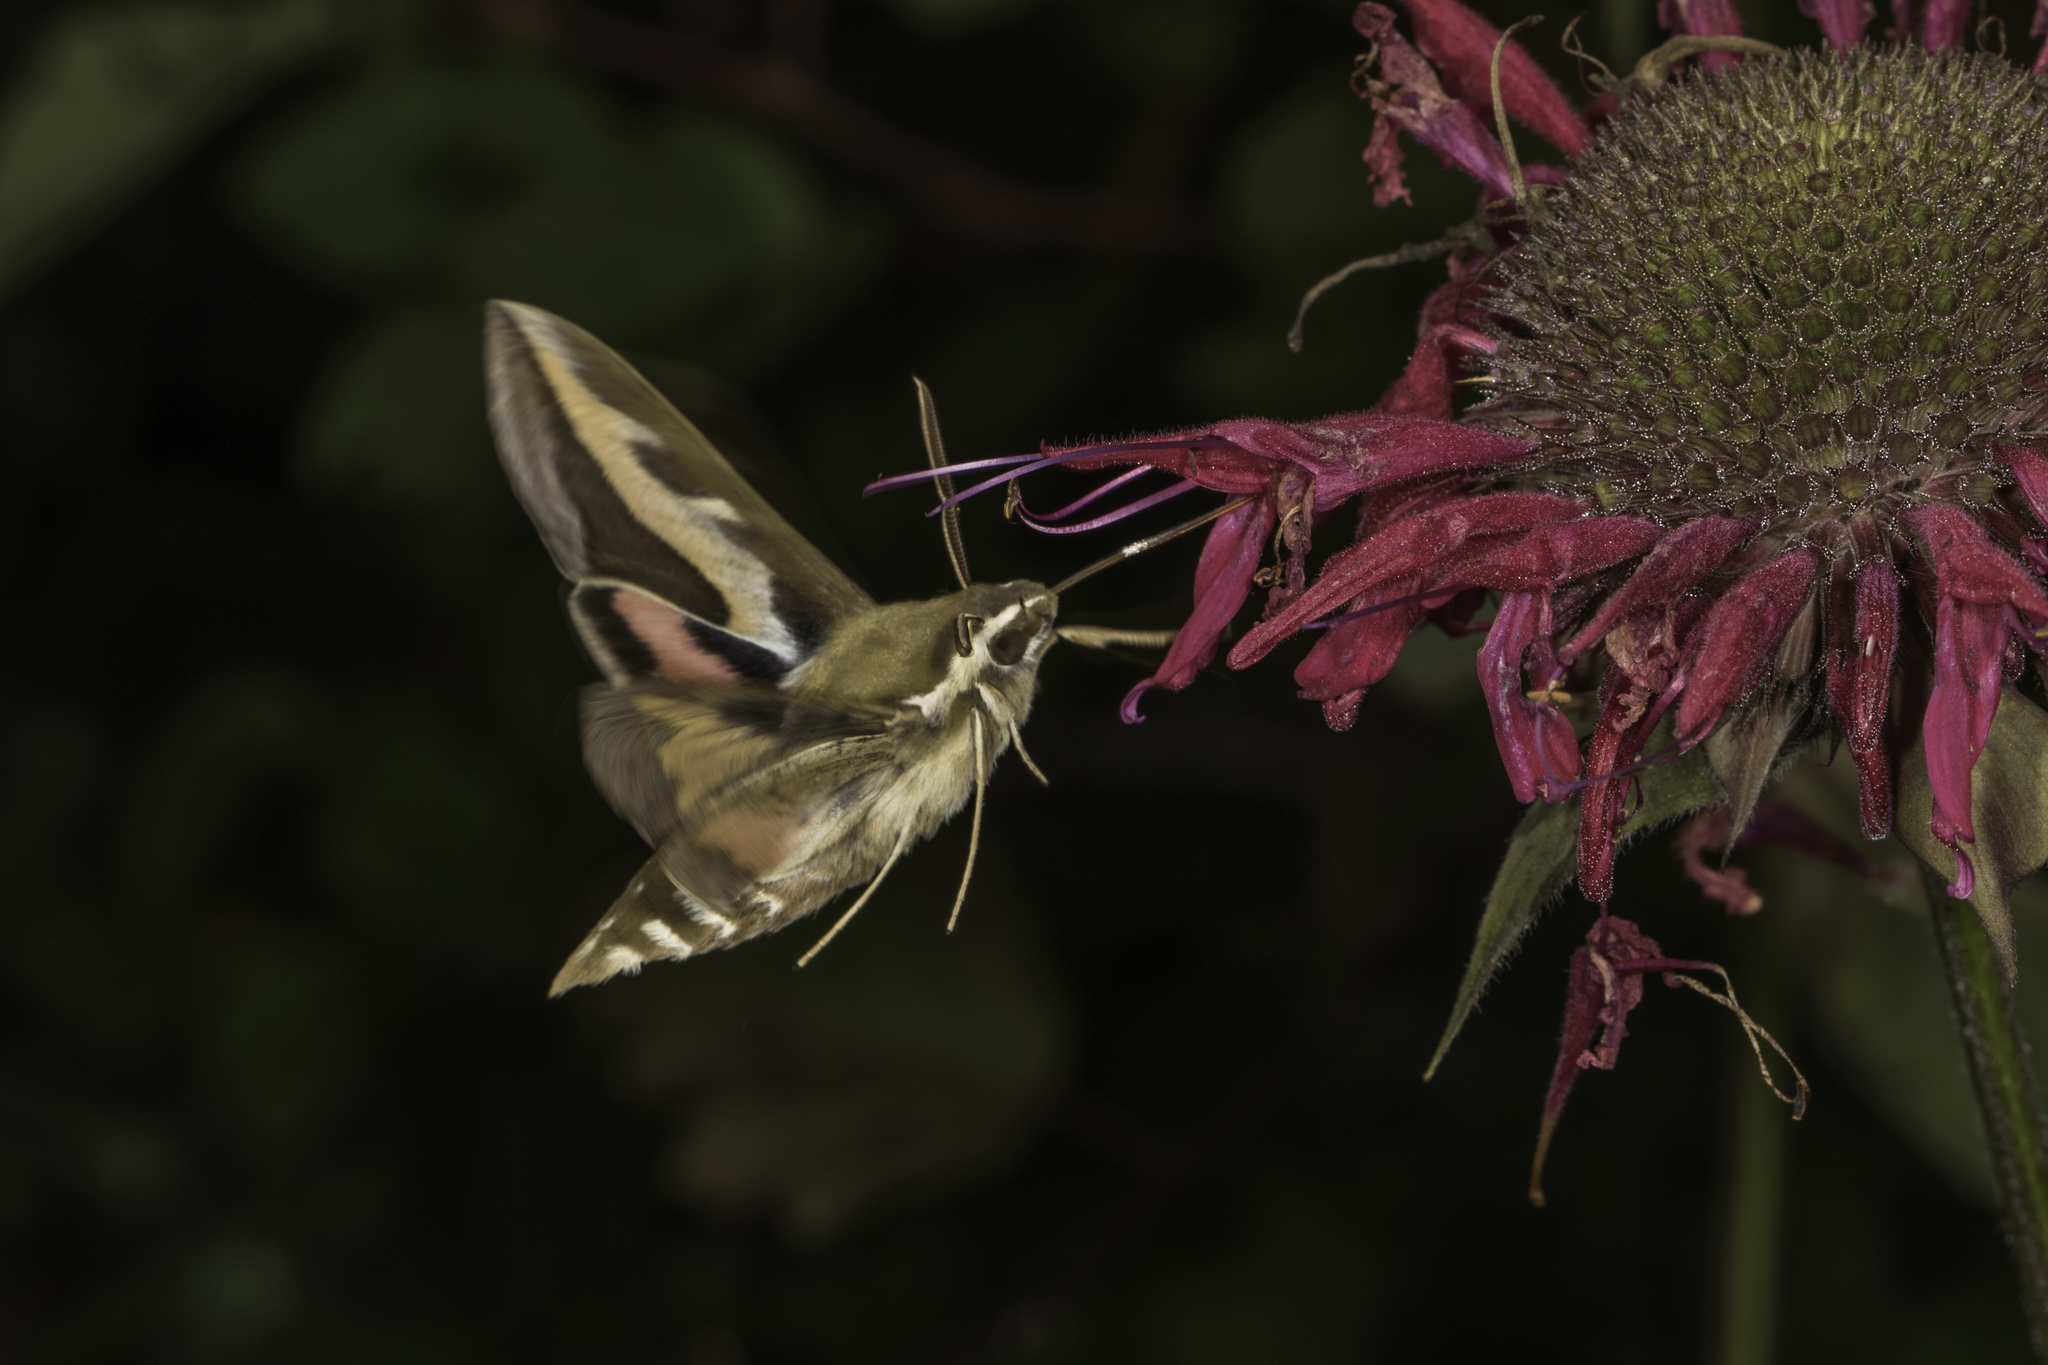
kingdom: Animalia
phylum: Arthropoda
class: Insecta
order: Lepidoptera
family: Sphingidae
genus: Hyles
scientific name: Hyles gallii
